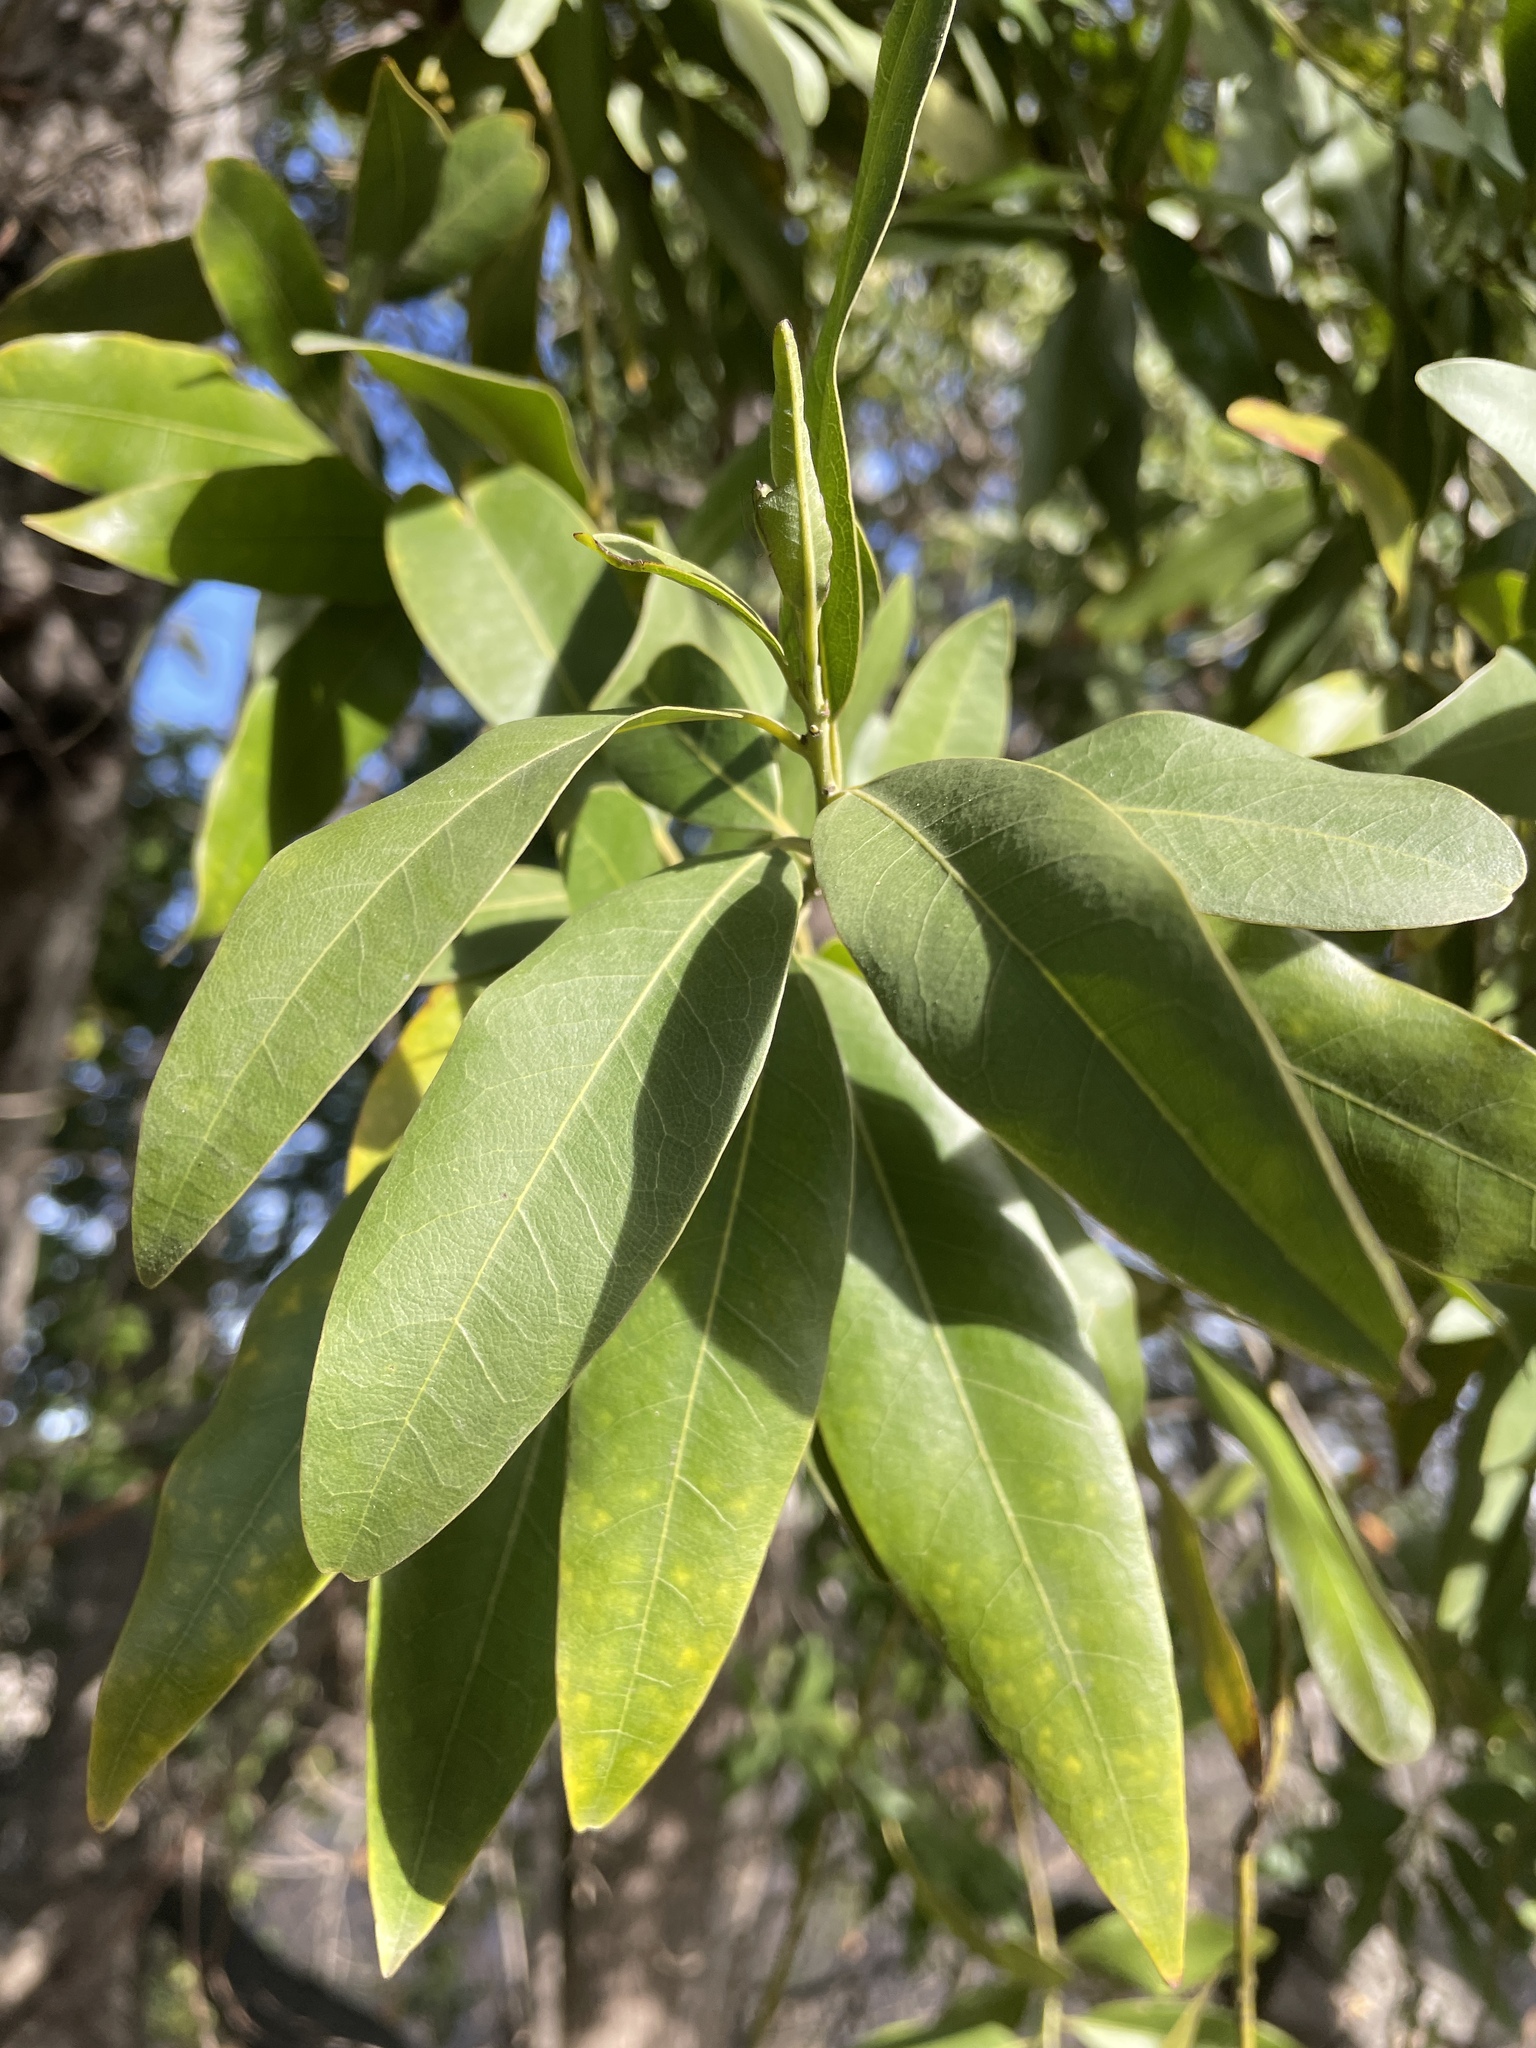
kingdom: Plantae
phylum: Tracheophyta
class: Magnoliopsida
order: Laurales
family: Lauraceae
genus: Umbellularia
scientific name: Umbellularia californica
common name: California bay
